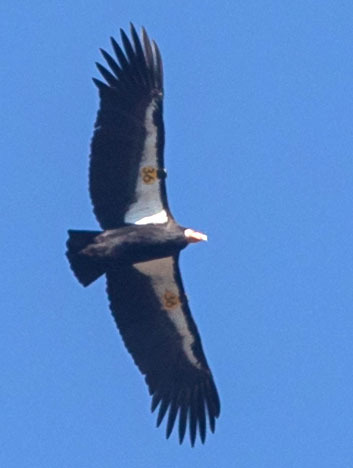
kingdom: Animalia
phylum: Chordata
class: Aves
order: Accipitriformes
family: Cathartidae
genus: Gymnogyps
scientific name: Gymnogyps californianus
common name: California condor
